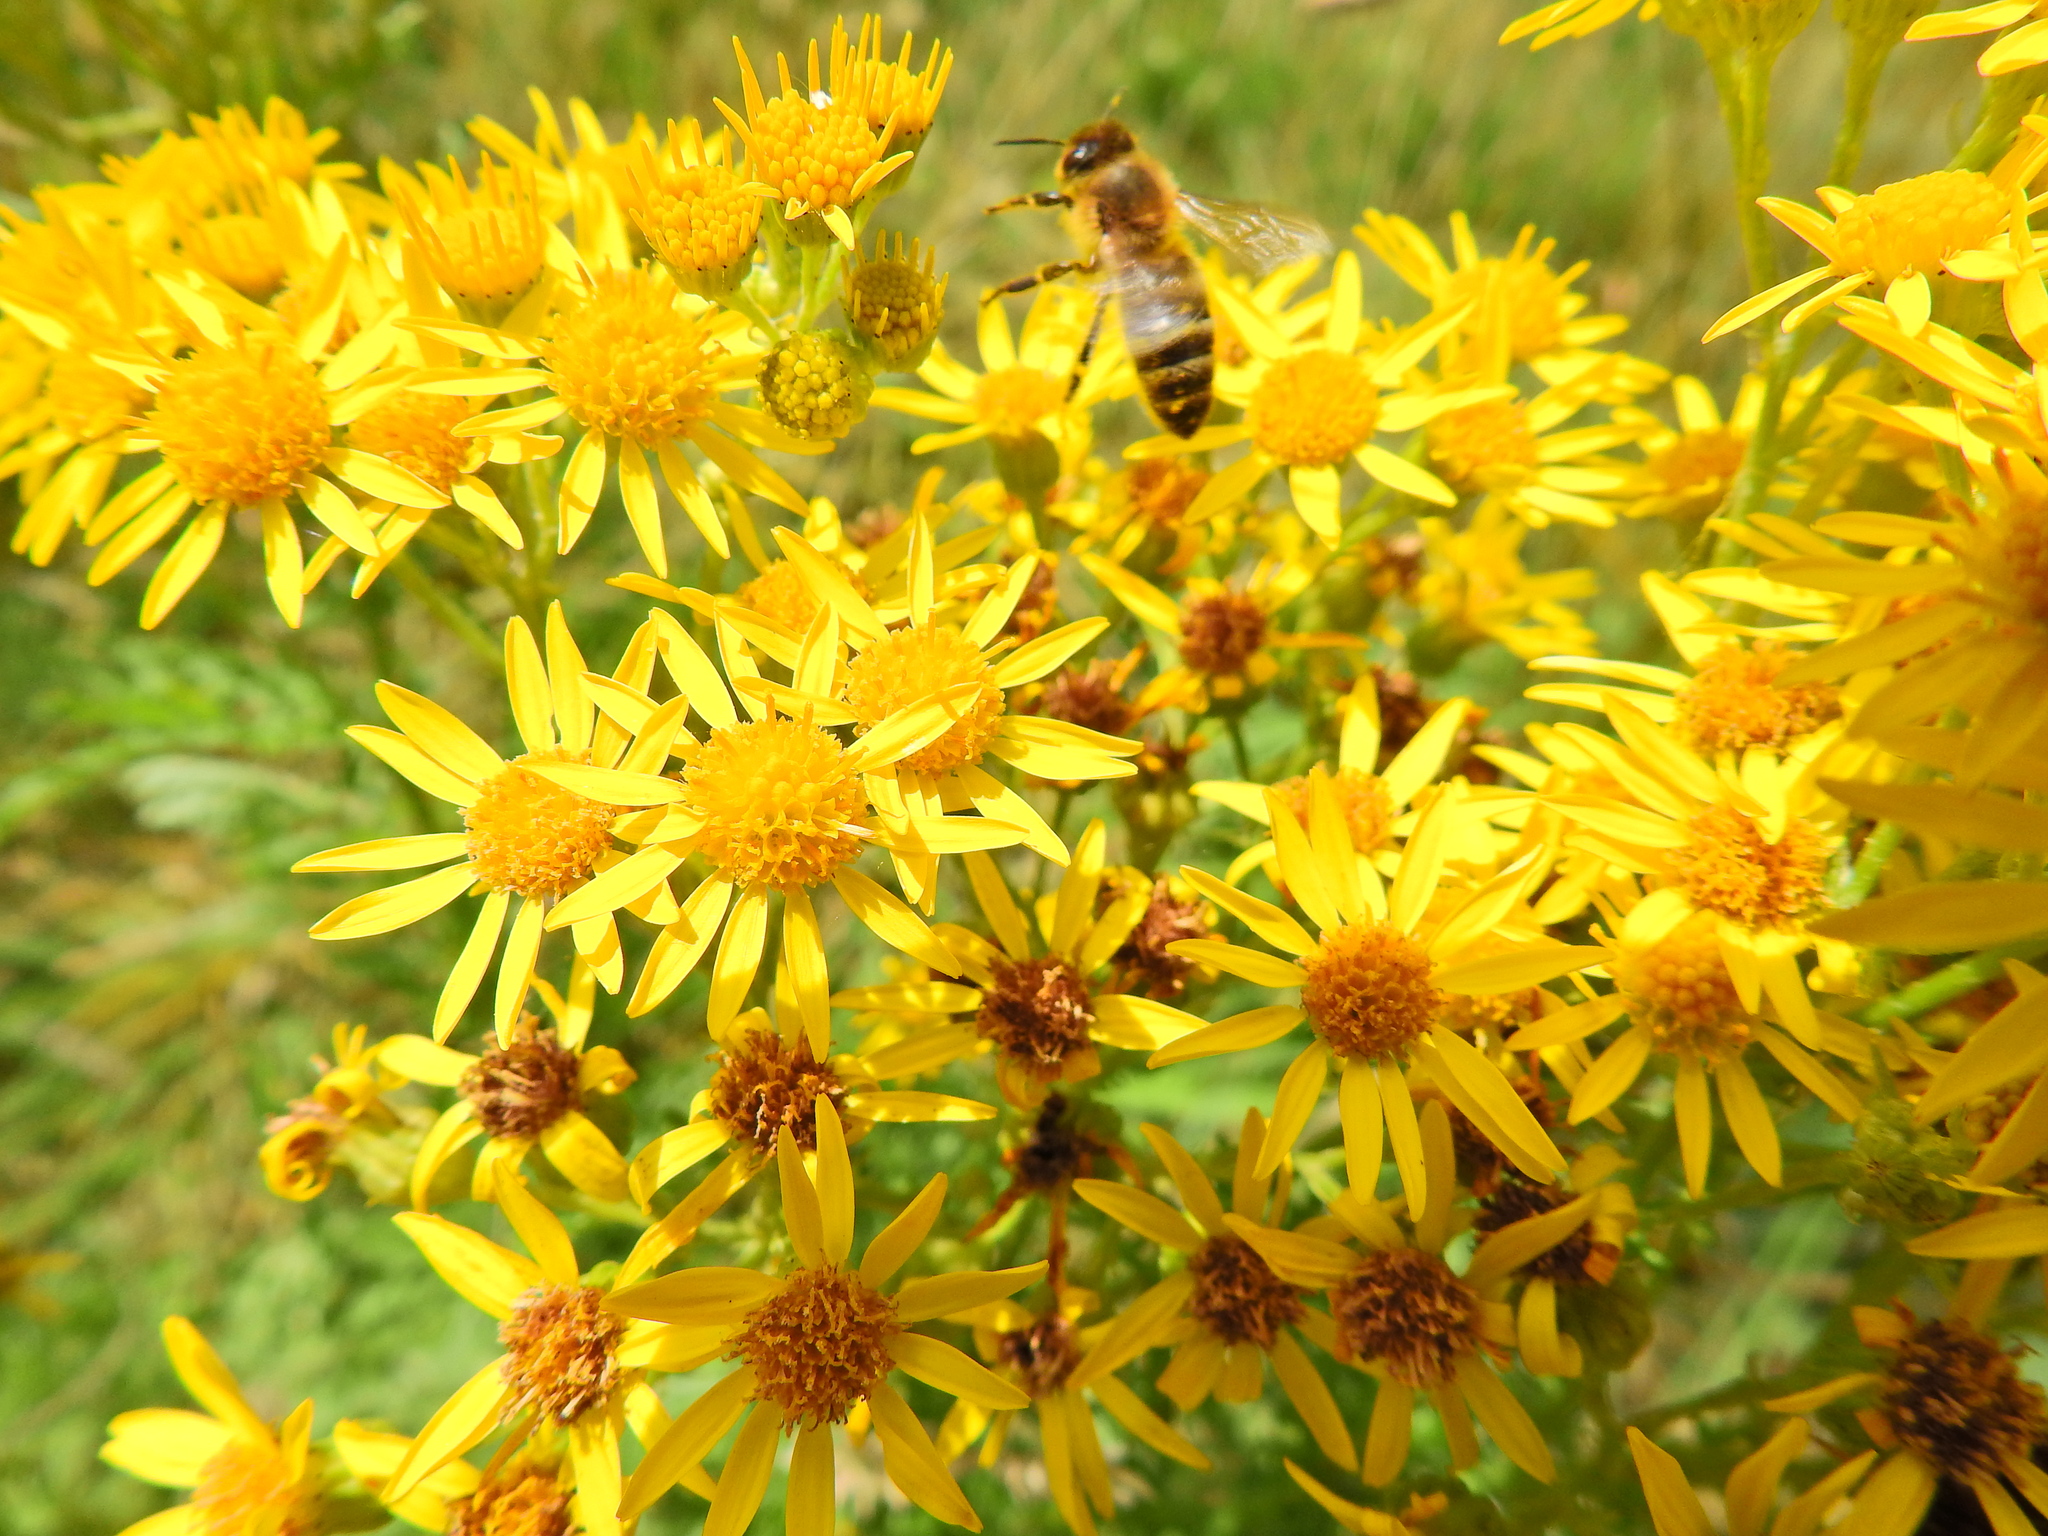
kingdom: Animalia
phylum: Arthropoda
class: Insecta
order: Hymenoptera
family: Apidae
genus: Apis
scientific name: Apis mellifera
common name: Honey bee
